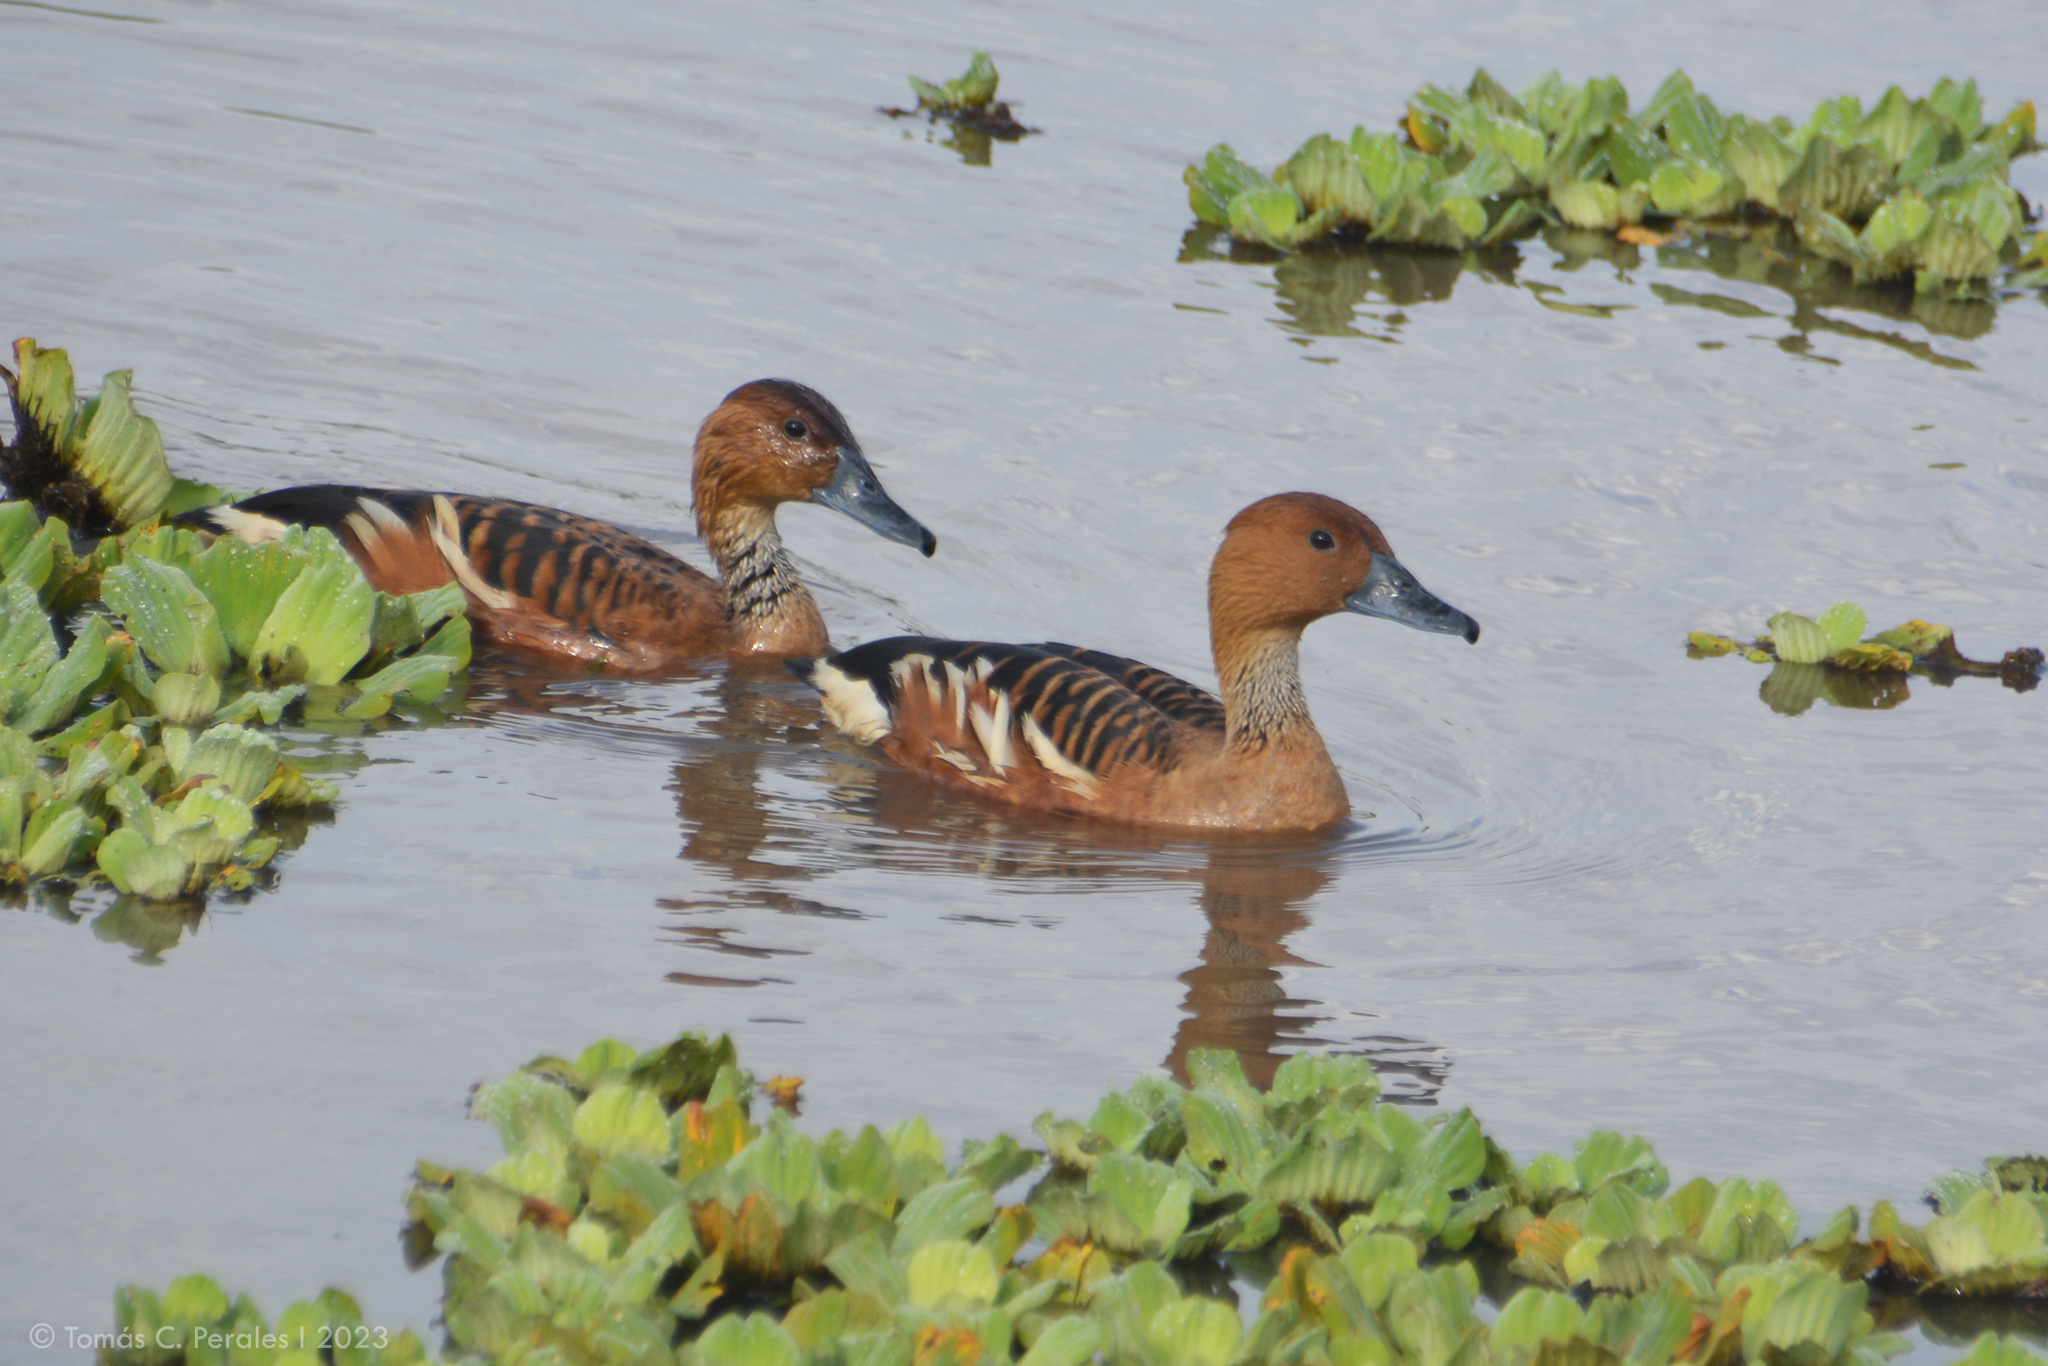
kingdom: Animalia
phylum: Chordata
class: Aves
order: Anseriformes
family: Anatidae
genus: Dendrocygna
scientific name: Dendrocygna bicolor
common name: Fulvous whistling duck
